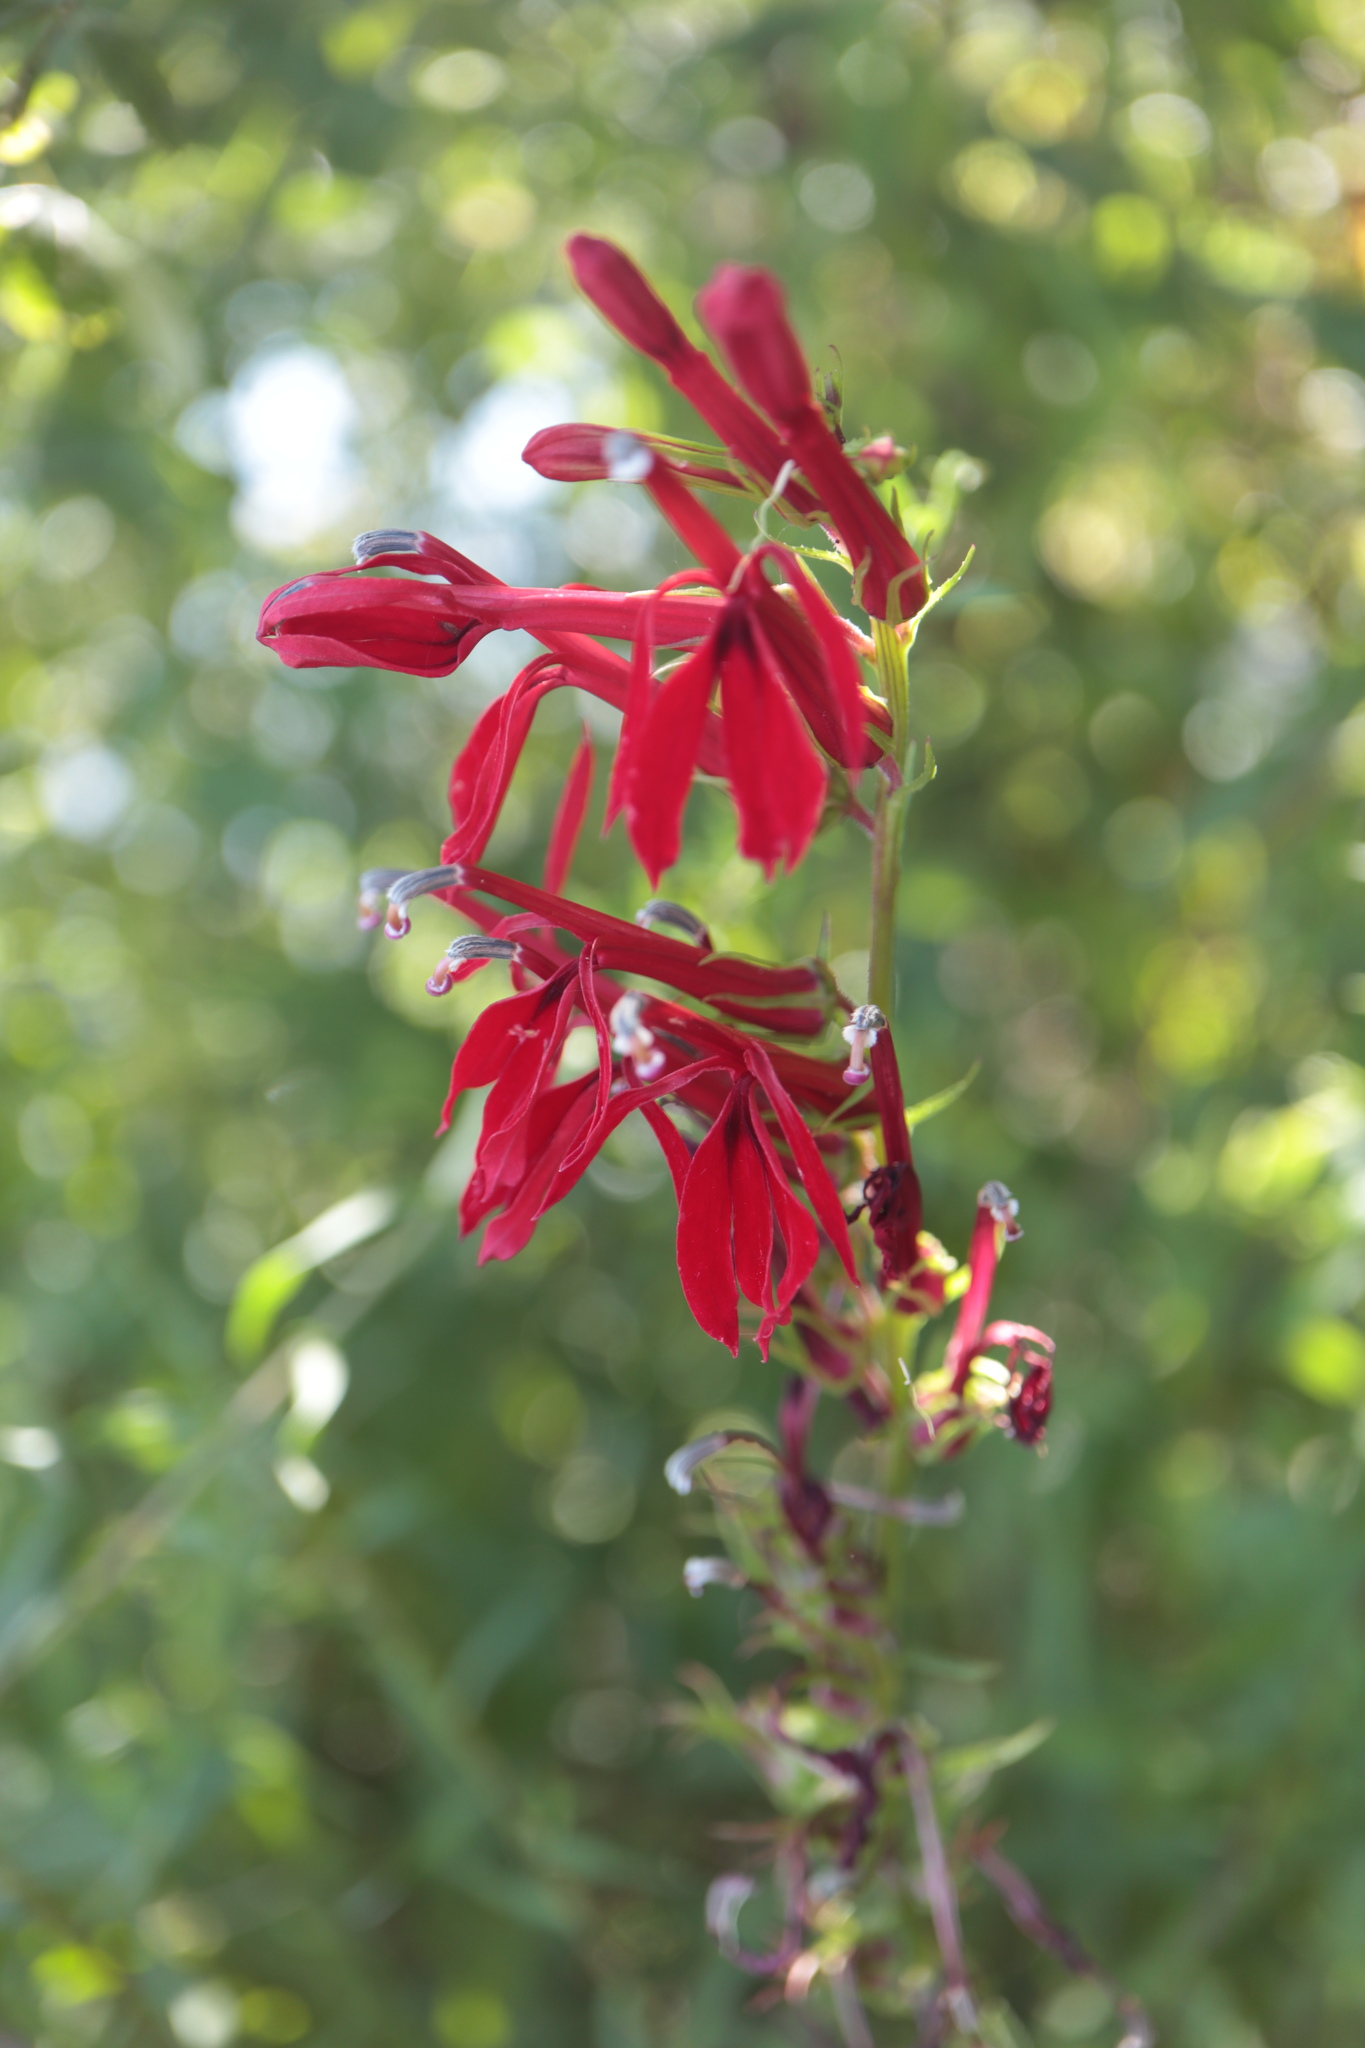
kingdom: Plantae
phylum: Tracheophyta
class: Magnoliopsida
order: Asterales
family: Campanulaceae
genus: Lobelia
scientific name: Lobelia cardinalis
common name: Cardinal flower
